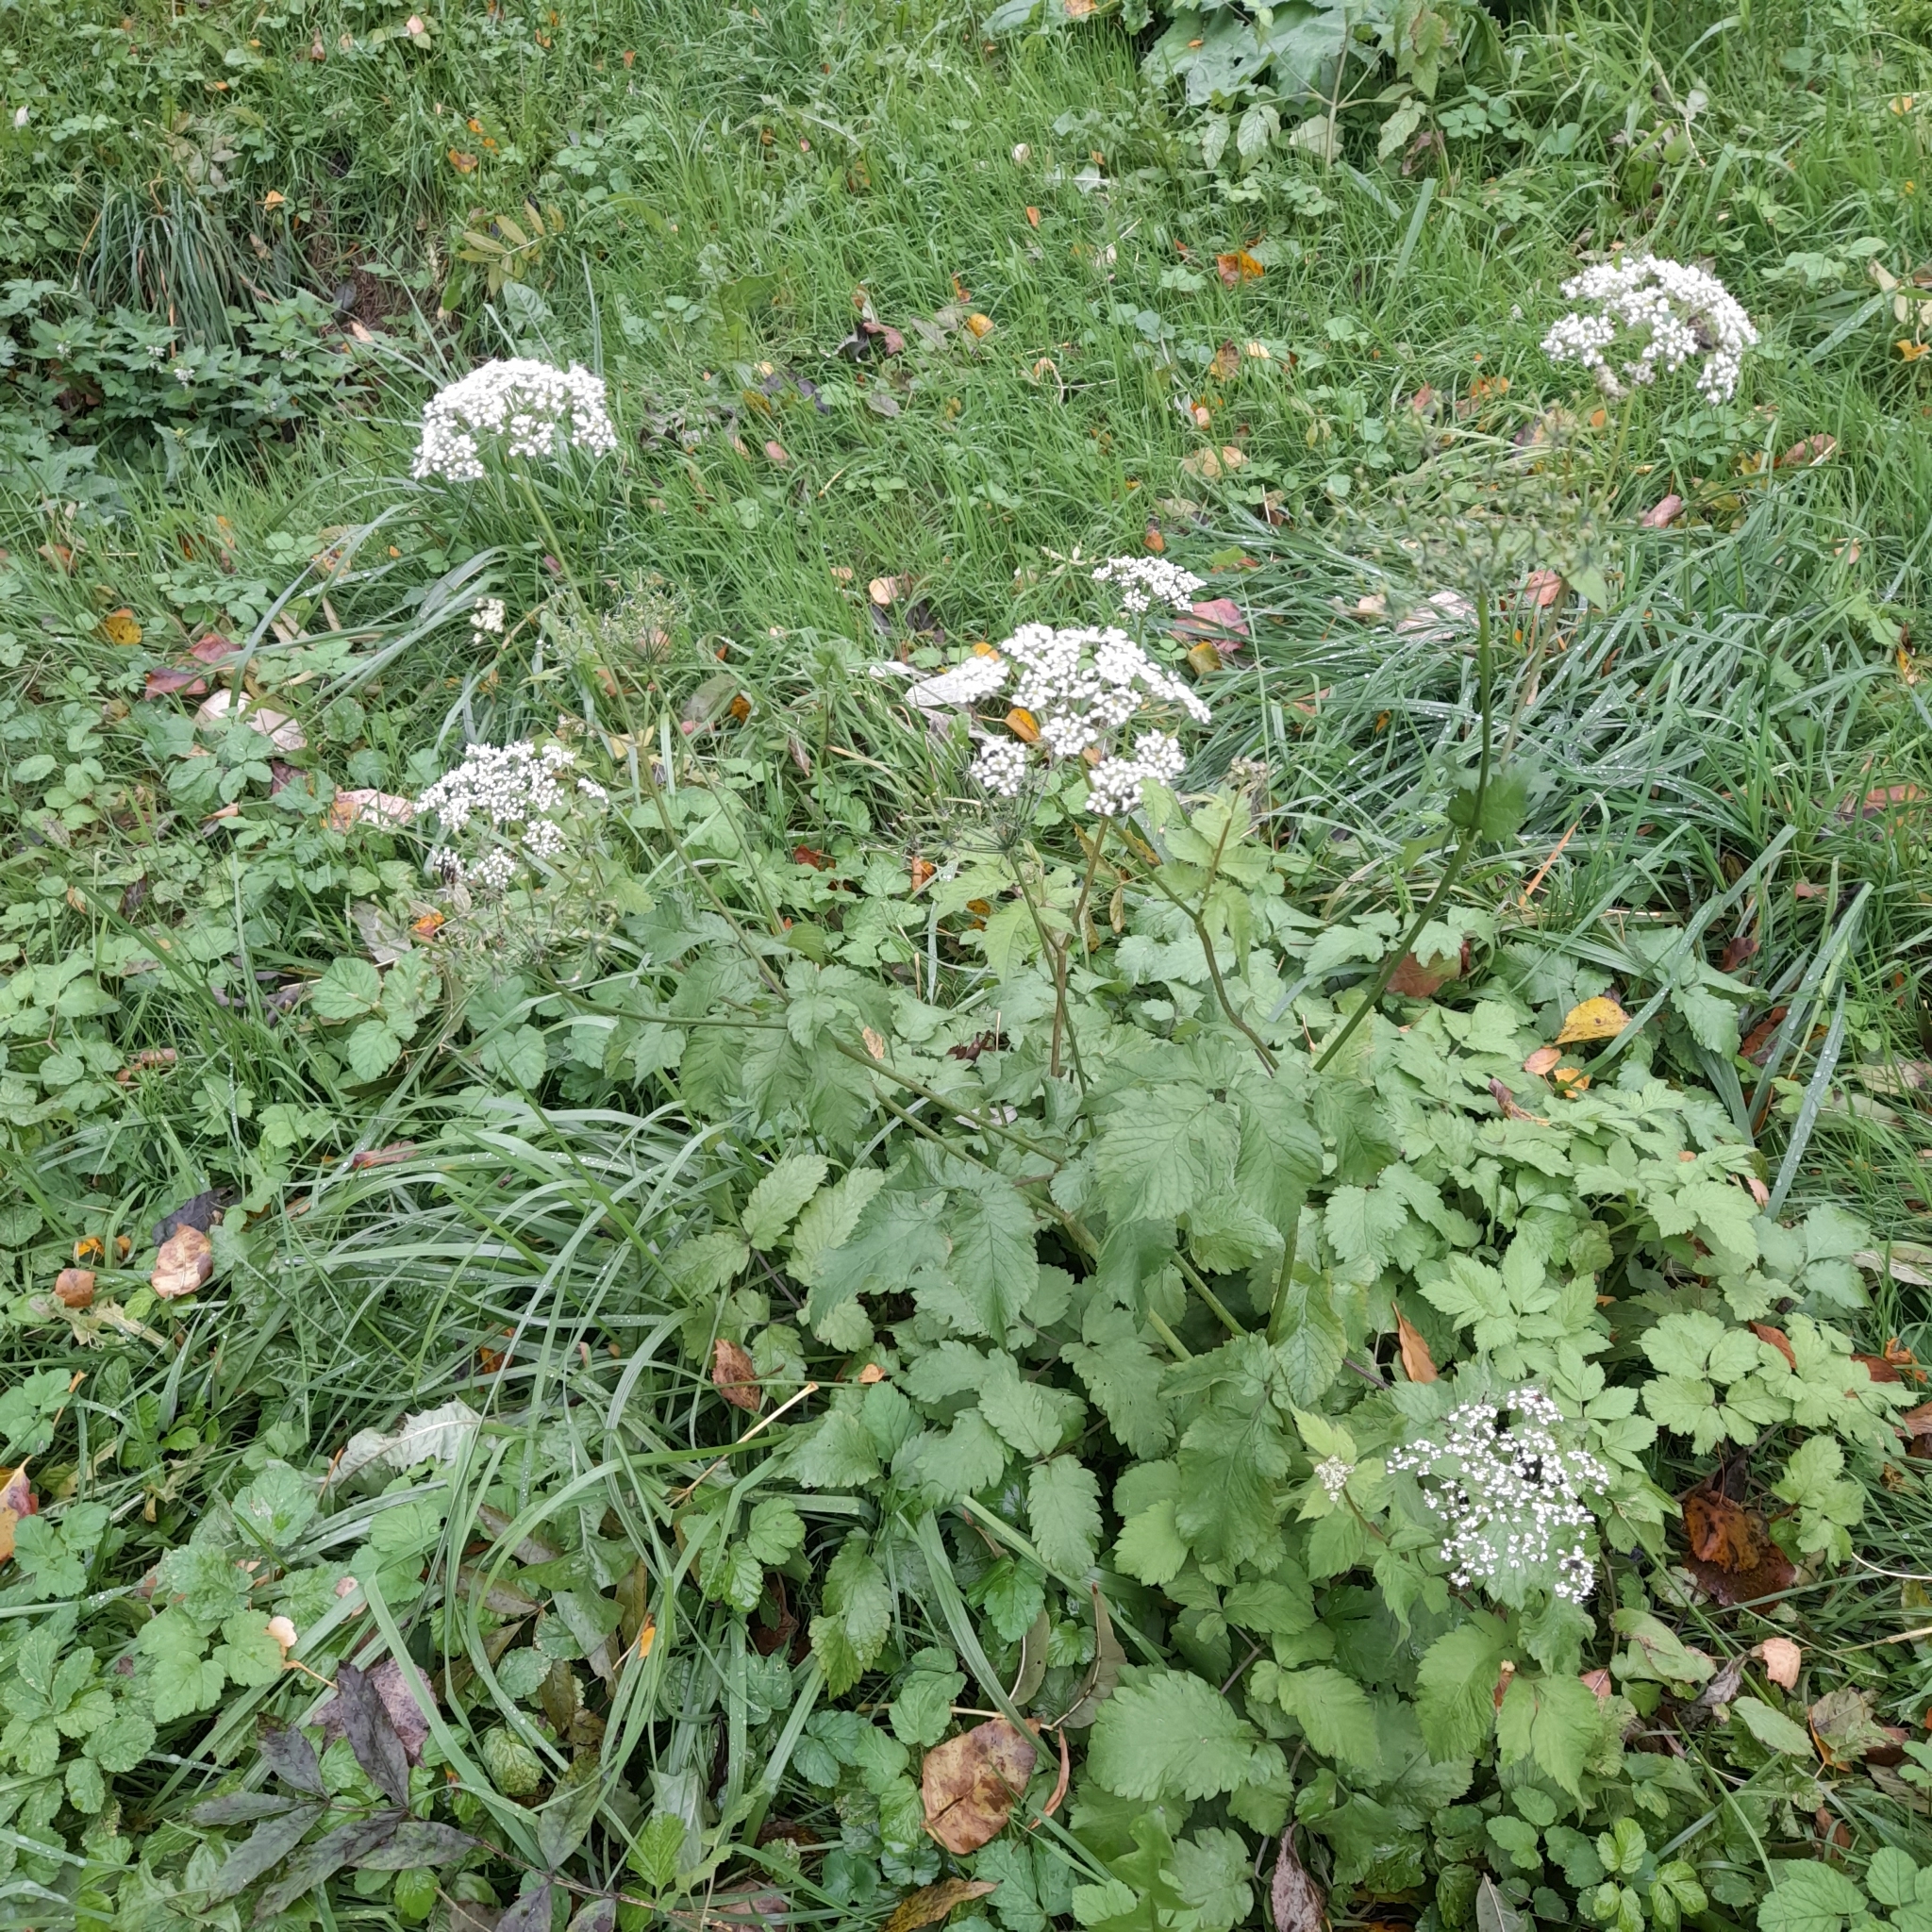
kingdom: Plantae
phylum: Tracheophyta
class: Magnoliopsida
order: Apiales
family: Apiaceae
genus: Chaerophyllum
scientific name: Chaerophyllum aromaticum
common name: Broadleaf chervil
